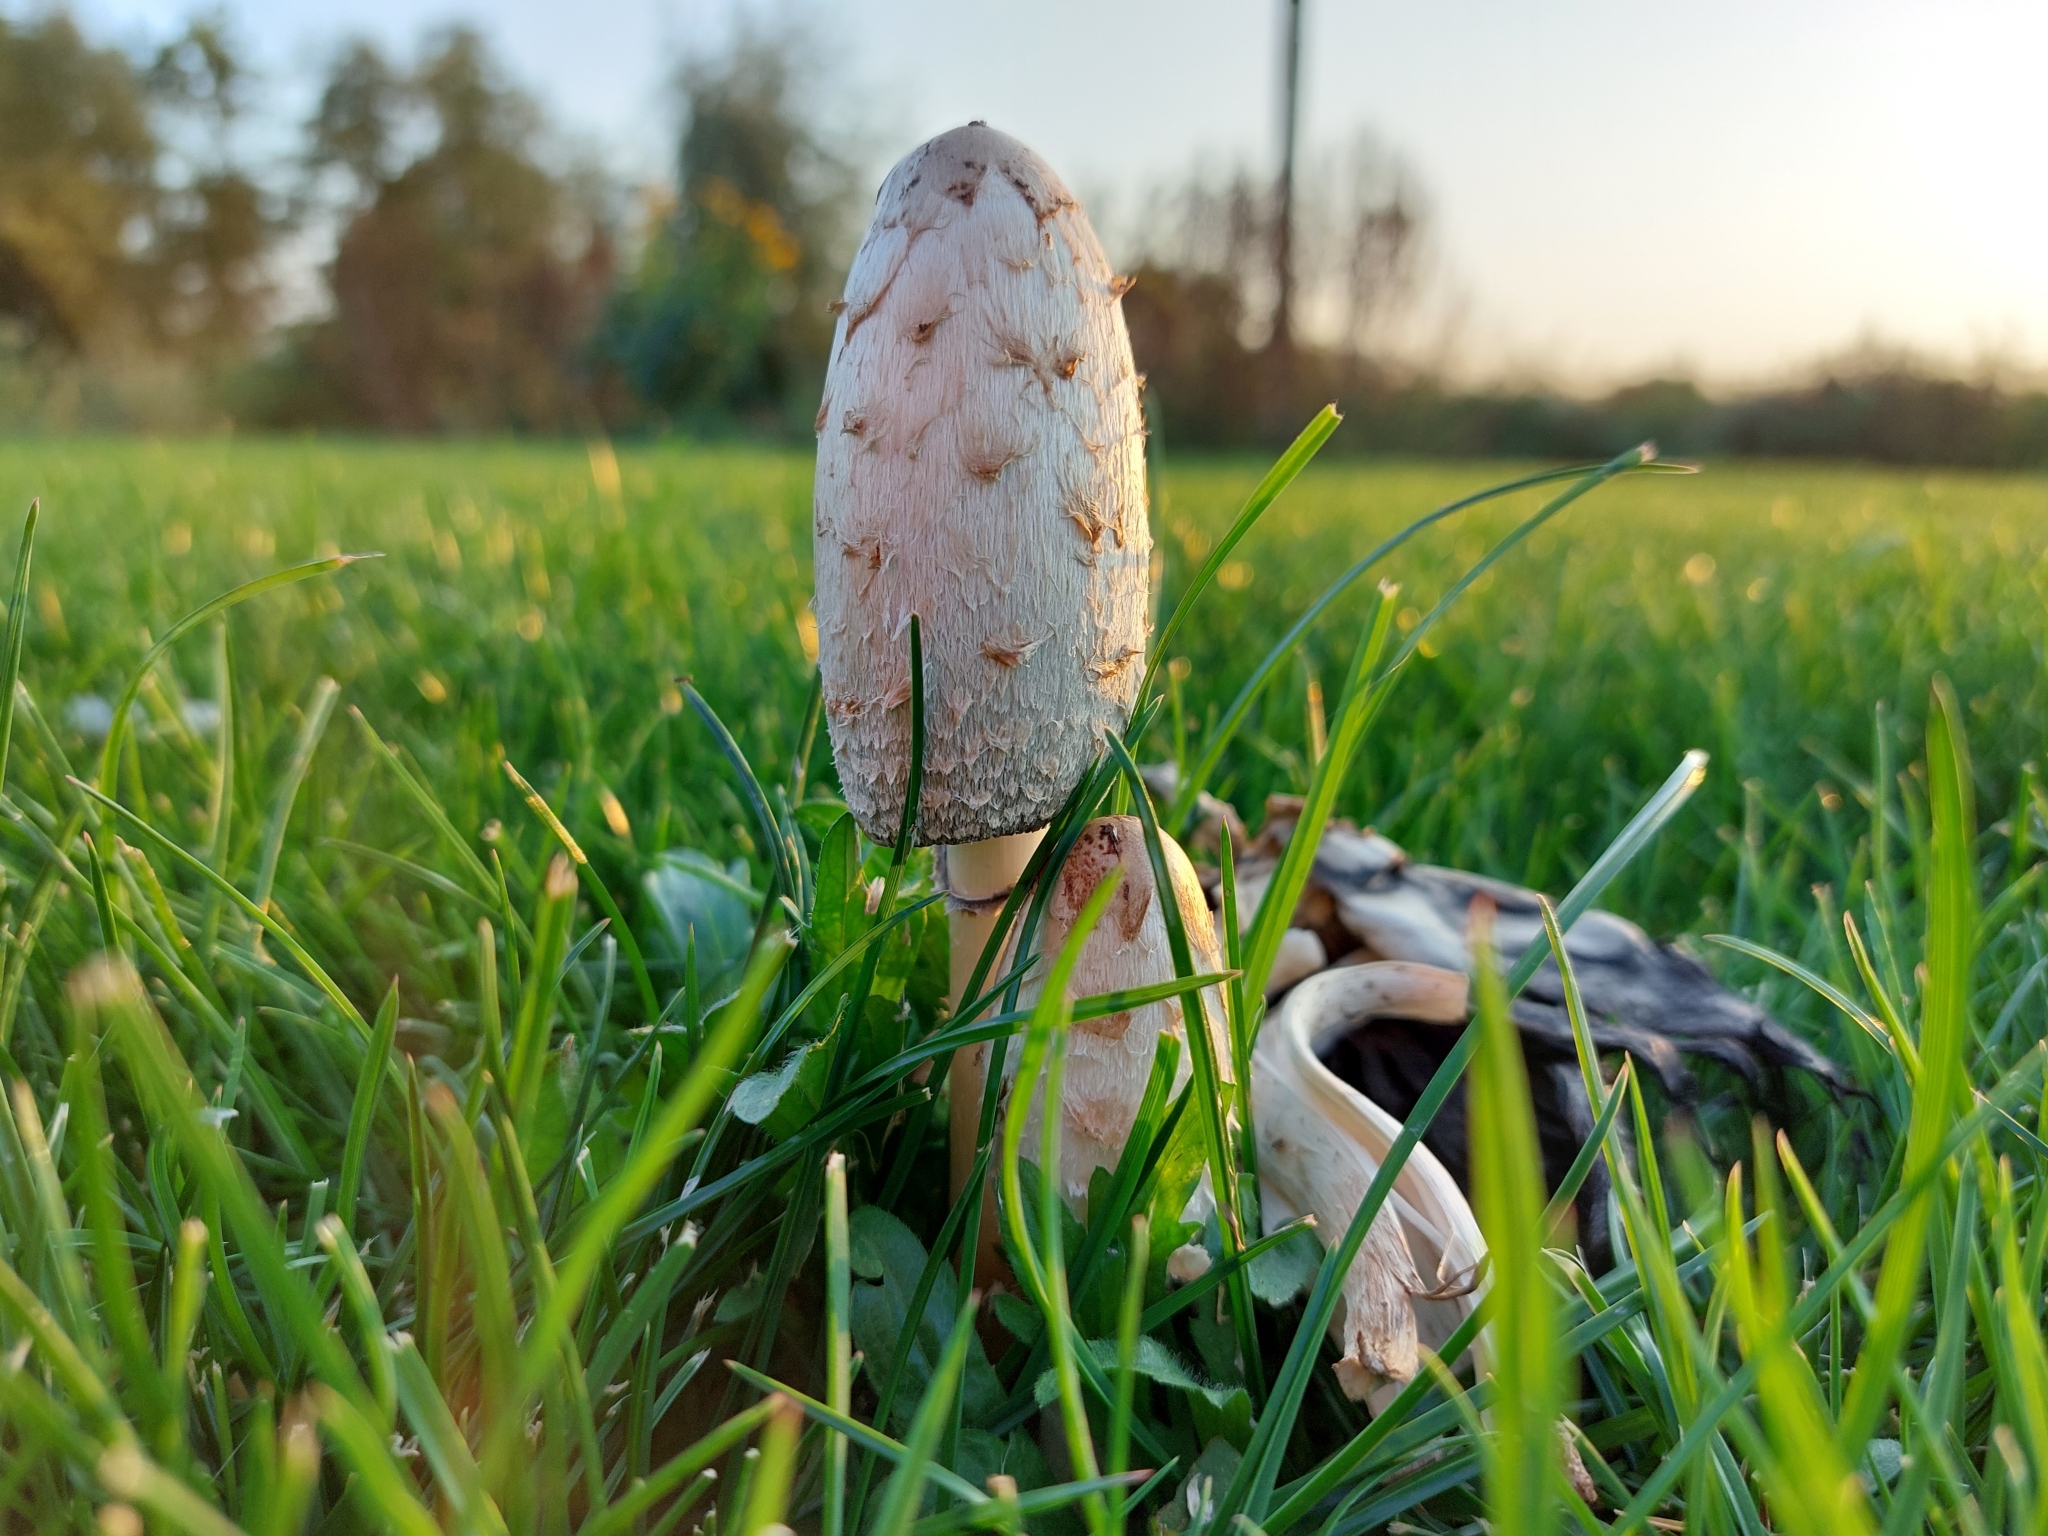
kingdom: Fungi
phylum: Basidiomycota
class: Agaricomycetes
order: Agaricales
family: Agaricaceae
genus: Coprinus
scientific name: Coprinus comatus
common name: Lawyer's wig
